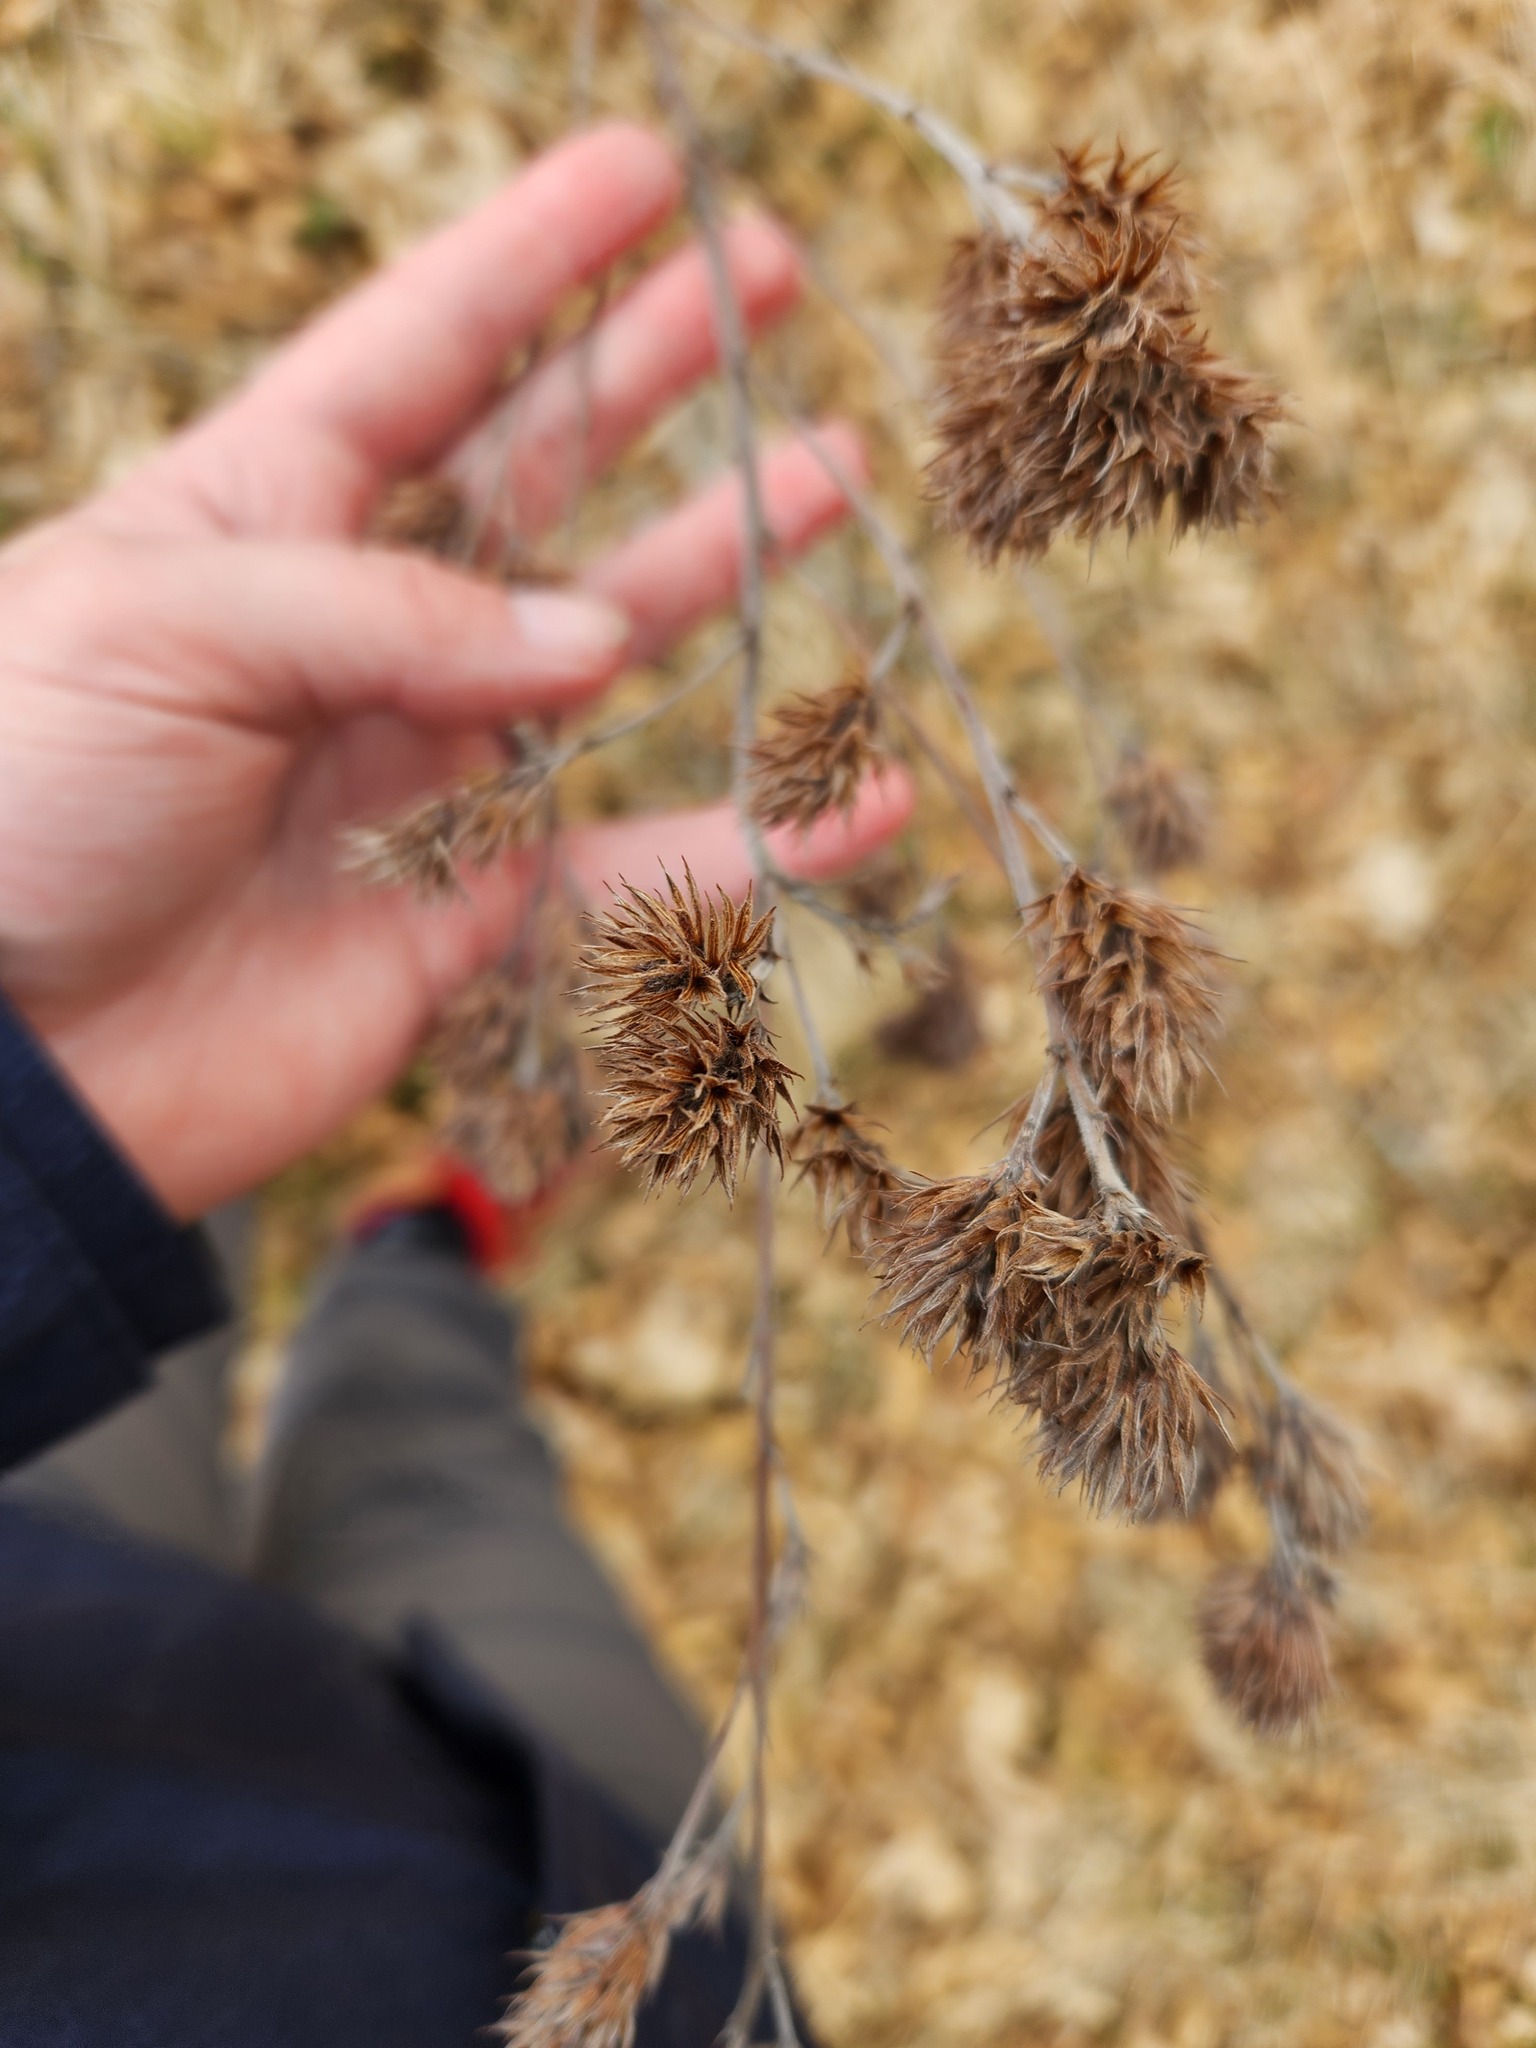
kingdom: Plantae
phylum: Tracheophyta
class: Magnoliopsida
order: Fabales
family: Fabaceae
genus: Lespedeza
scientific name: Lespedeza capitata
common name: Dusty clover
